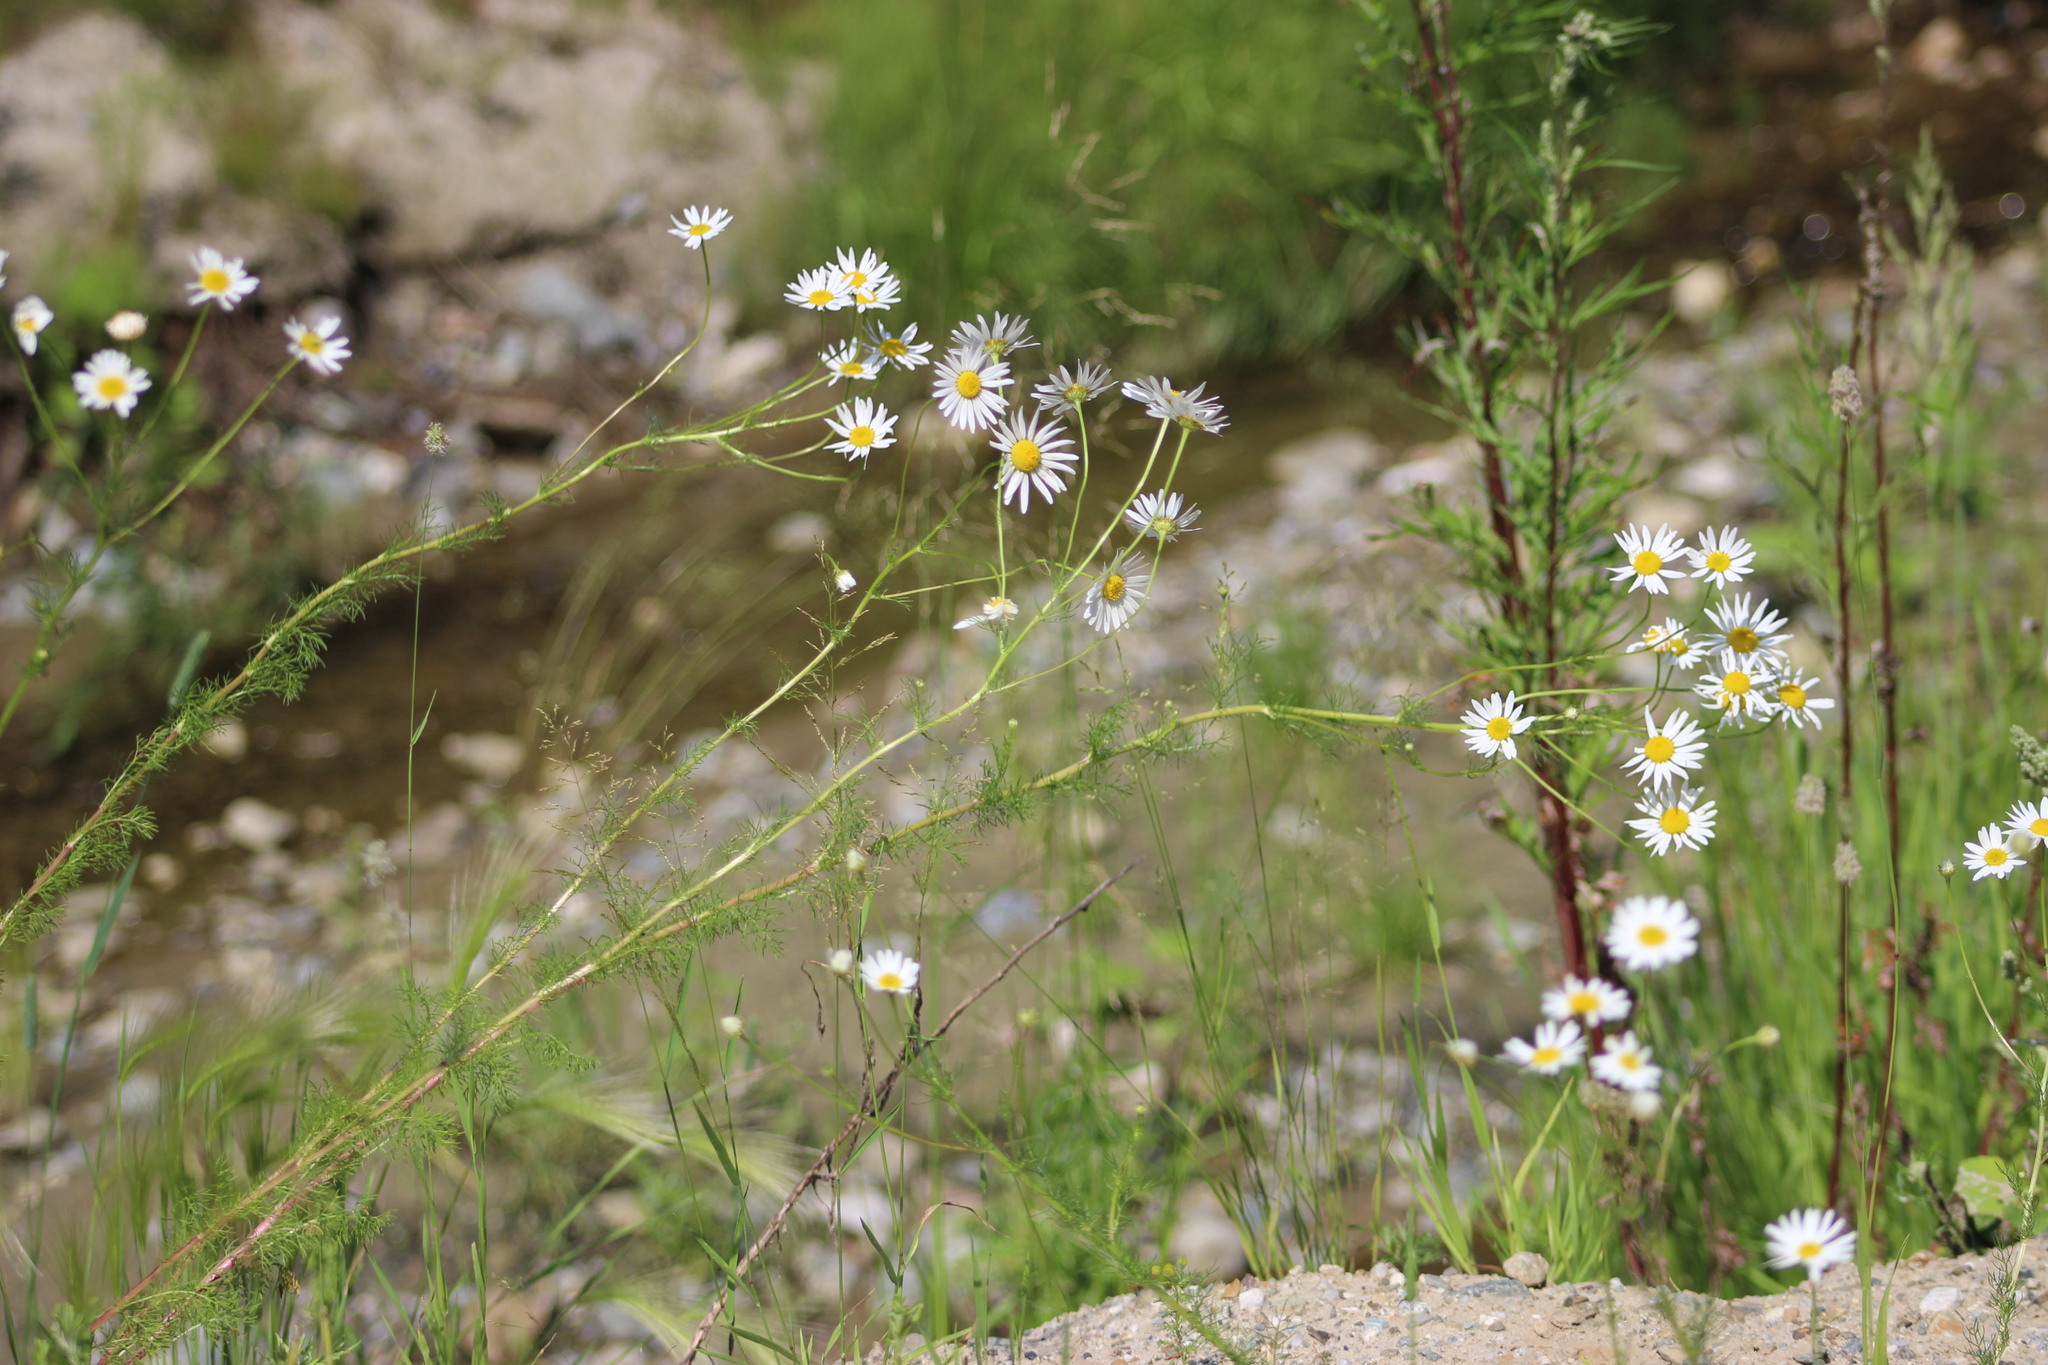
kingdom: Plantae
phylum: Tracheophyta
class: Magnoliopsida
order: Asterales
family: Asteraceae
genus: Tripleurospermum
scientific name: Tripleurospermum inodorum
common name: Scentless mayweed
